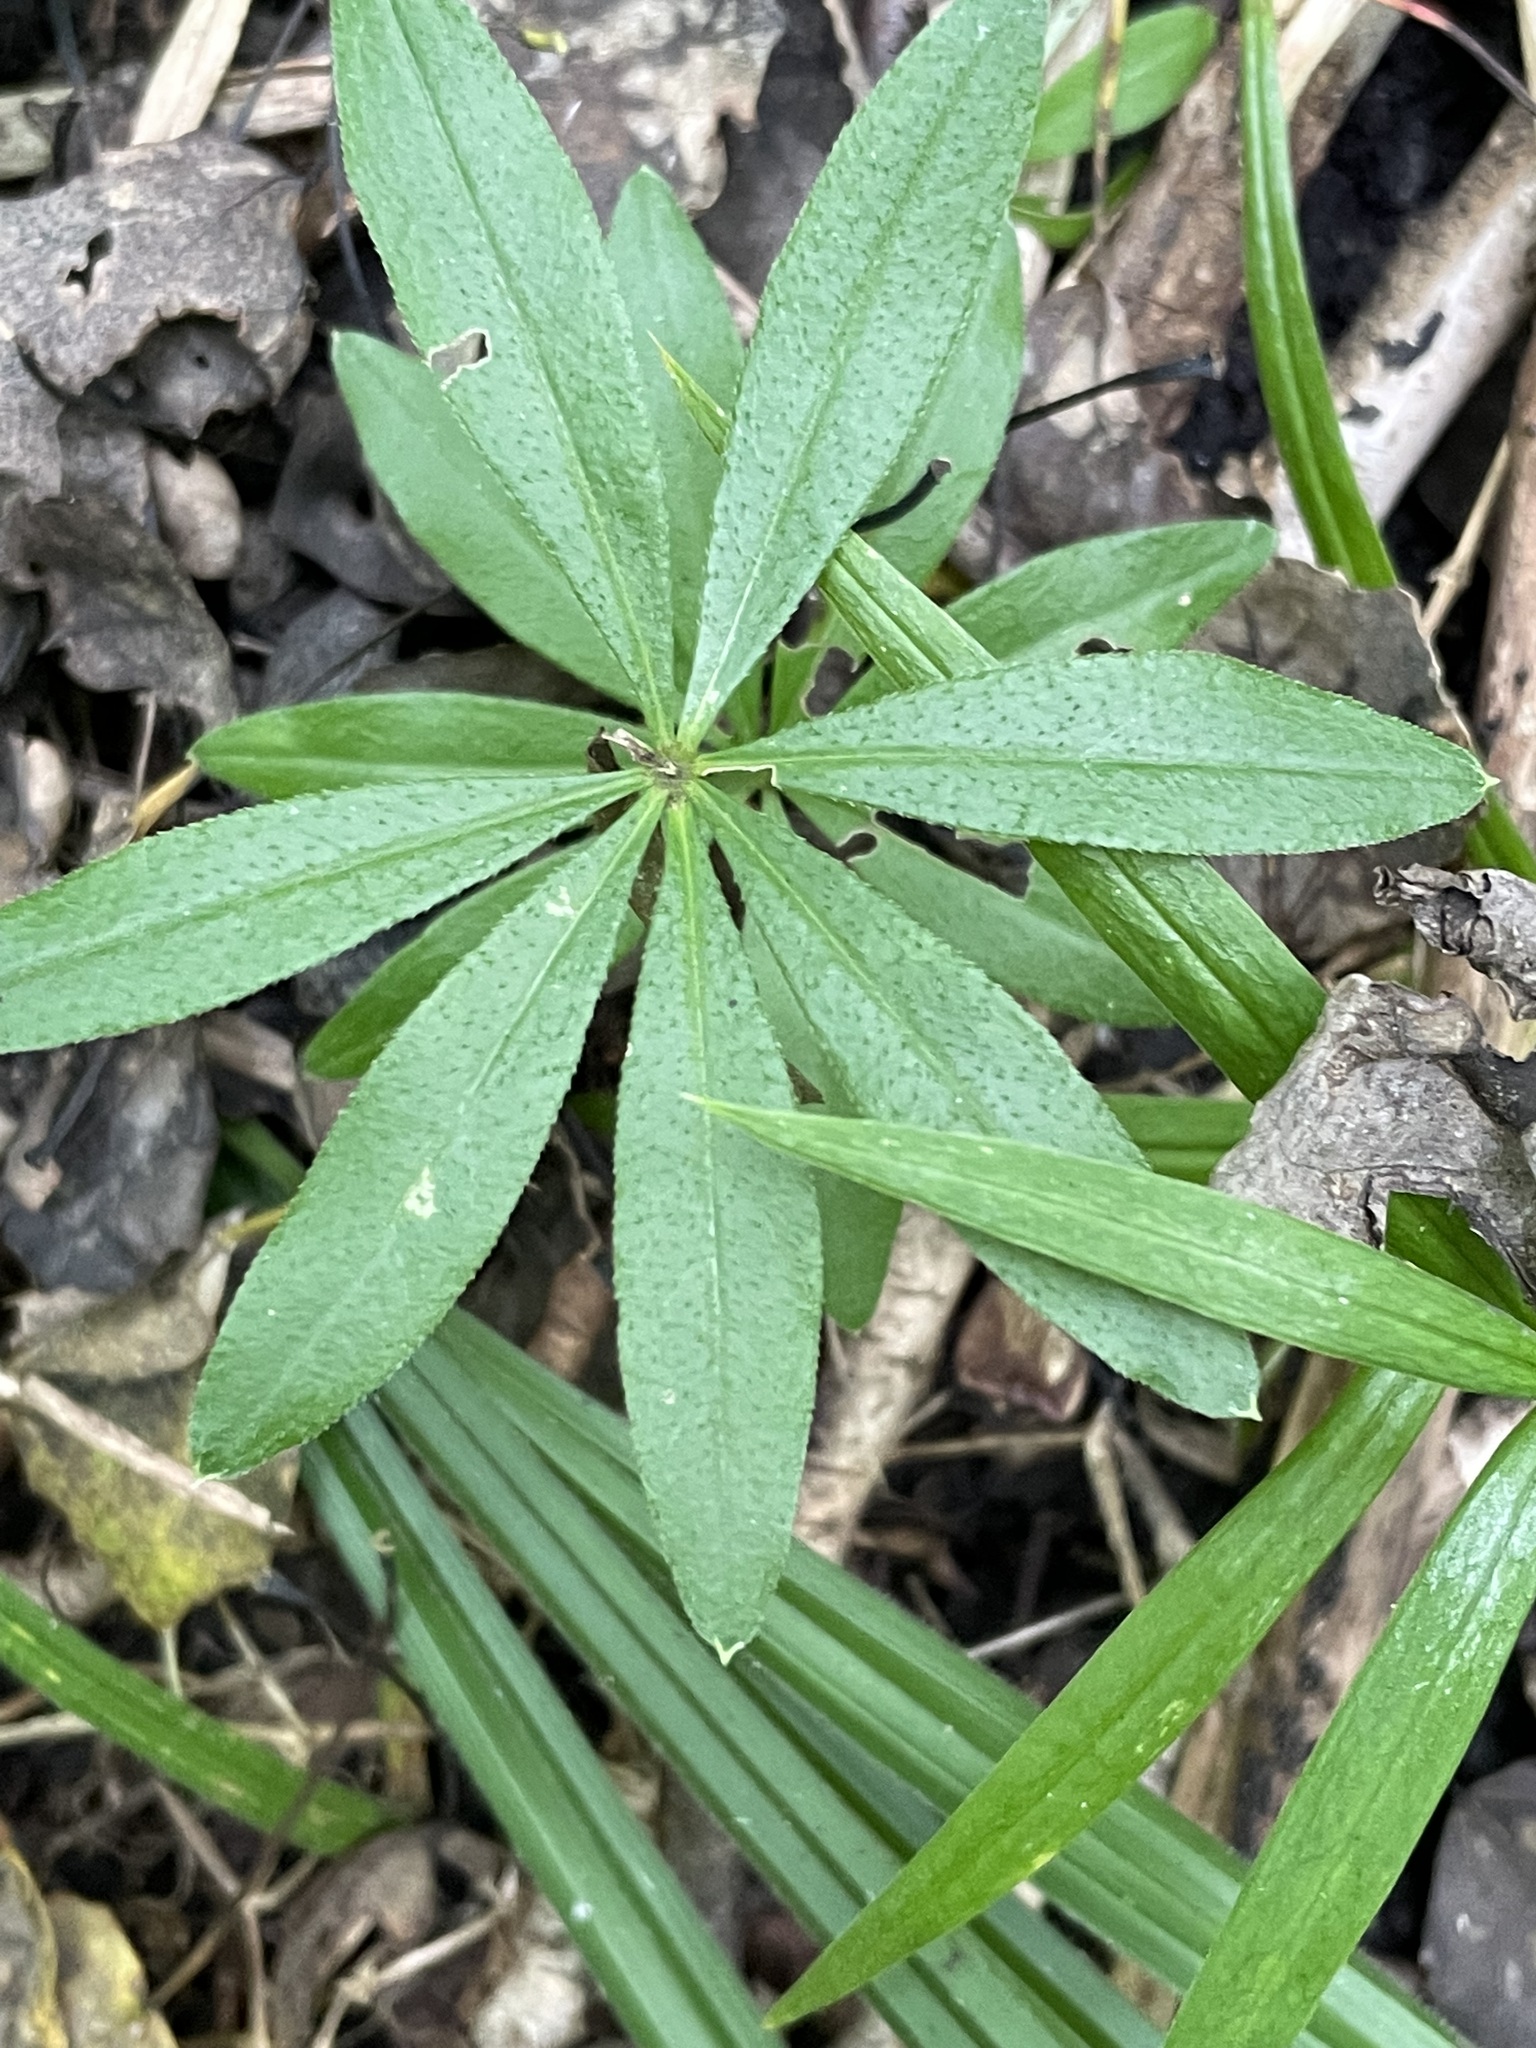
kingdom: Plantae
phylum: Tracheophyta
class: Magnoliopsida
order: Gentianales
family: Rubiaceae
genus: Galium
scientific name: Galium odoratum
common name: Sweet woodruff
